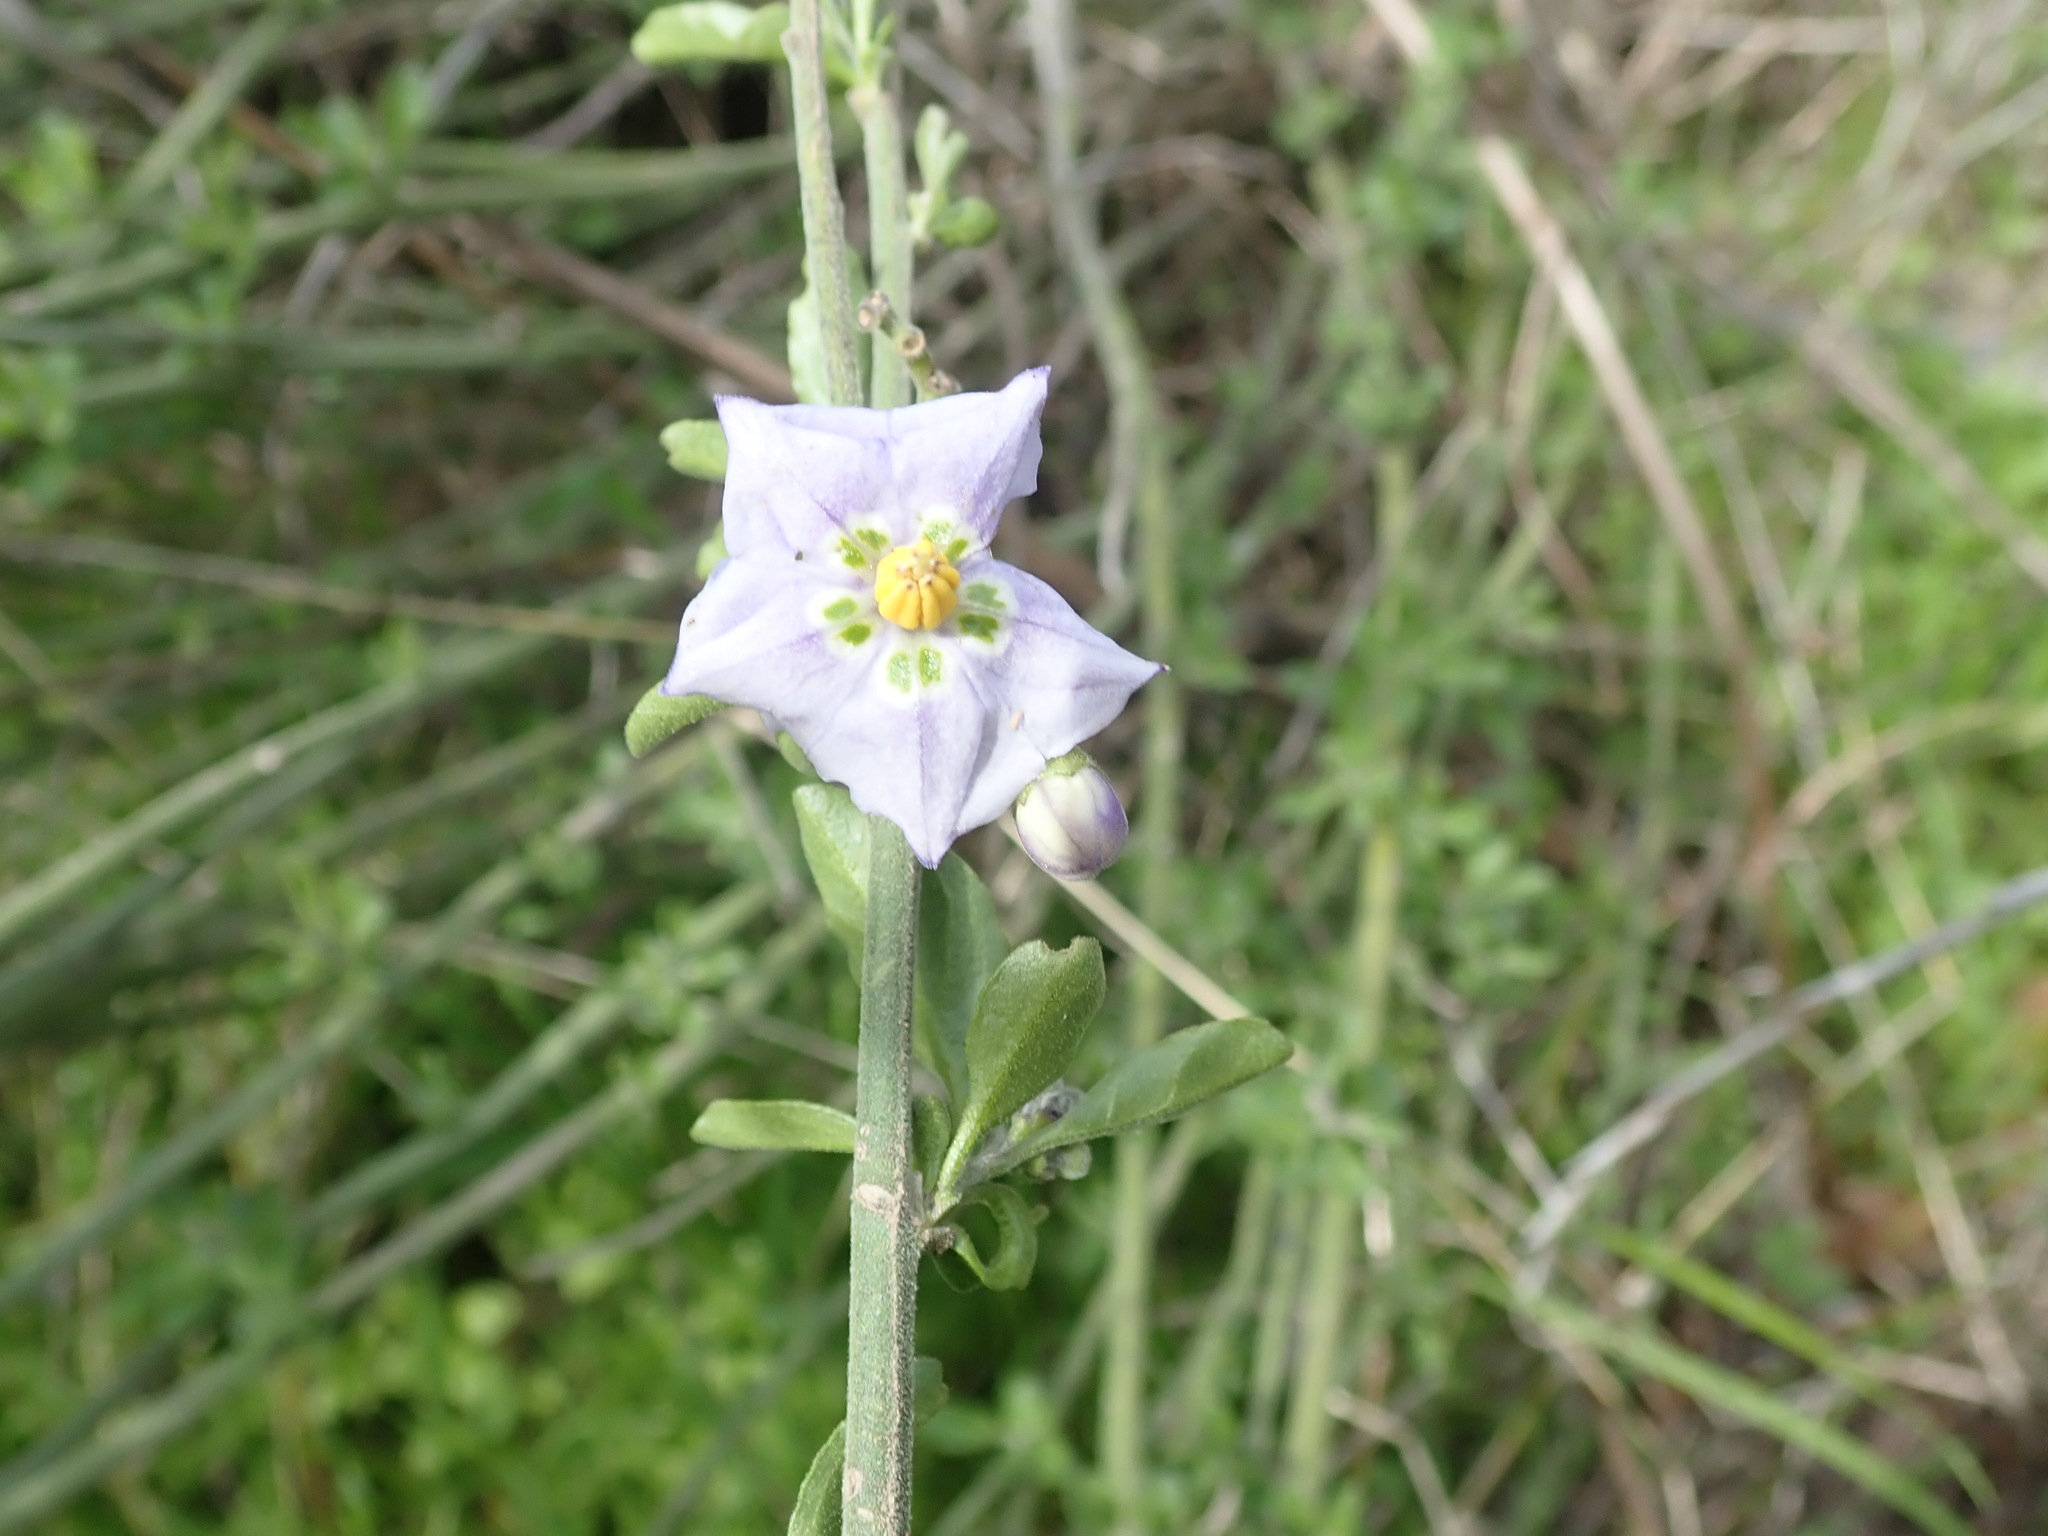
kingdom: Plantae
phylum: Tracheophyta
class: Magnoliopsida
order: Solanales
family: Solanaceae
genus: Solanum
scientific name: Solanum umbelliferum
